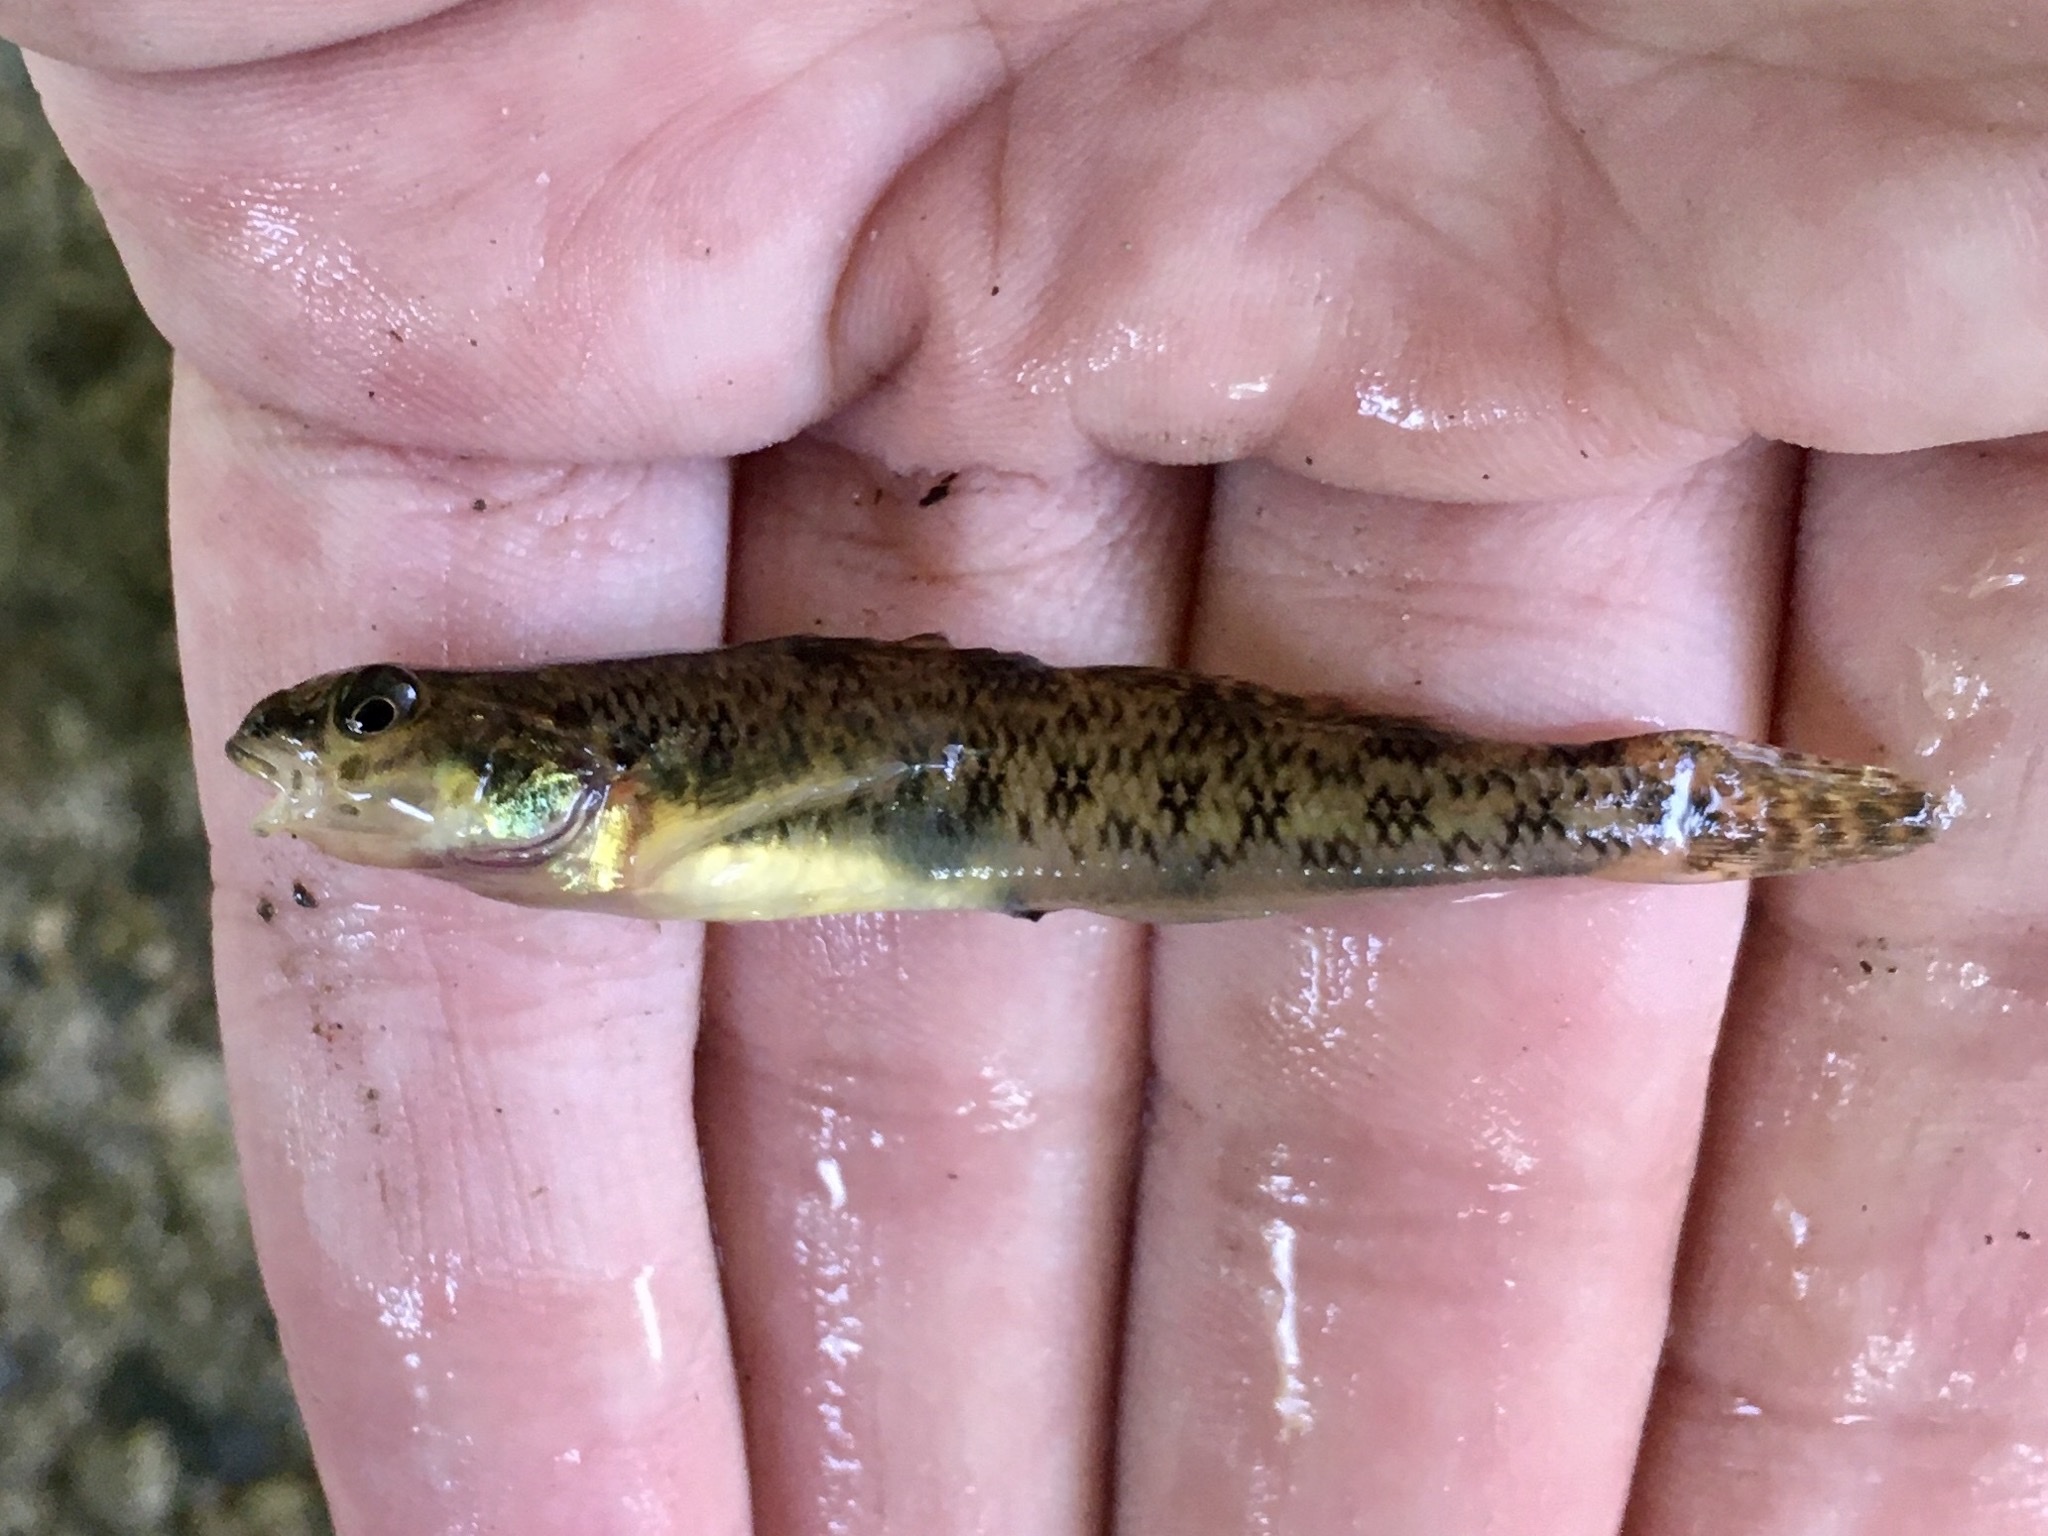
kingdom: Animalia
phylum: Chordata
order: Perciformes
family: Percidae
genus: Etheostoma
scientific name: Etheostoma nigrum
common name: Johnny darter
